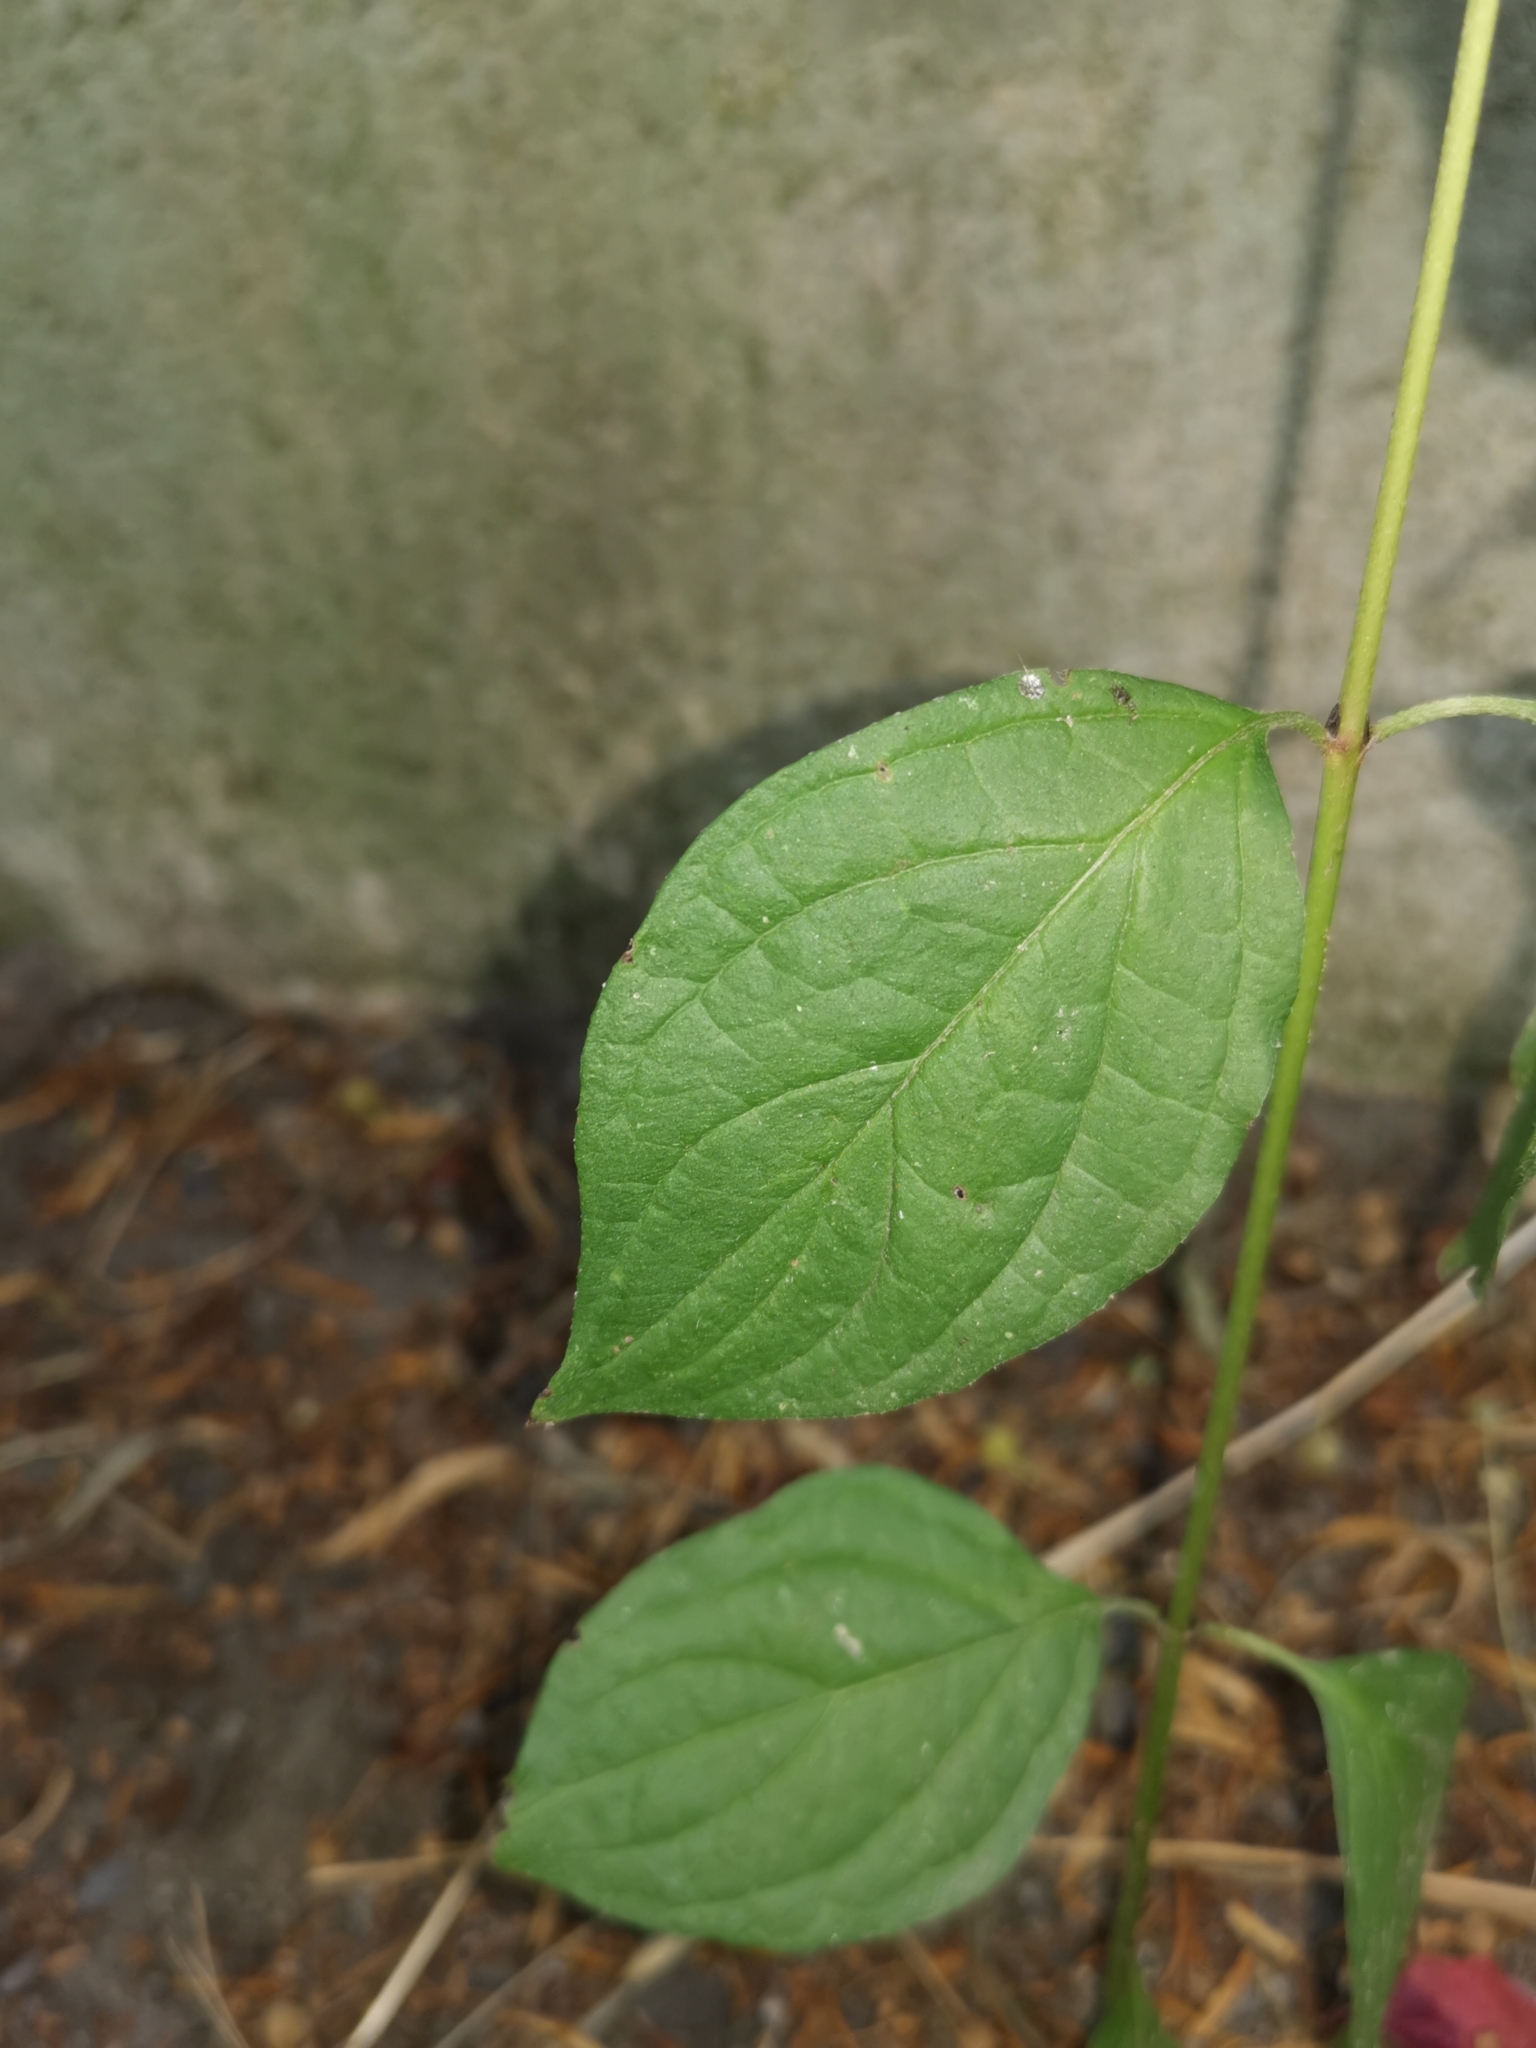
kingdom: Plantae
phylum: Tracheophyta
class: Magnoliopsida
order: Cornales
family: Cornaceae
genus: Cornus
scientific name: Cornus sanguinea
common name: Dogwood
